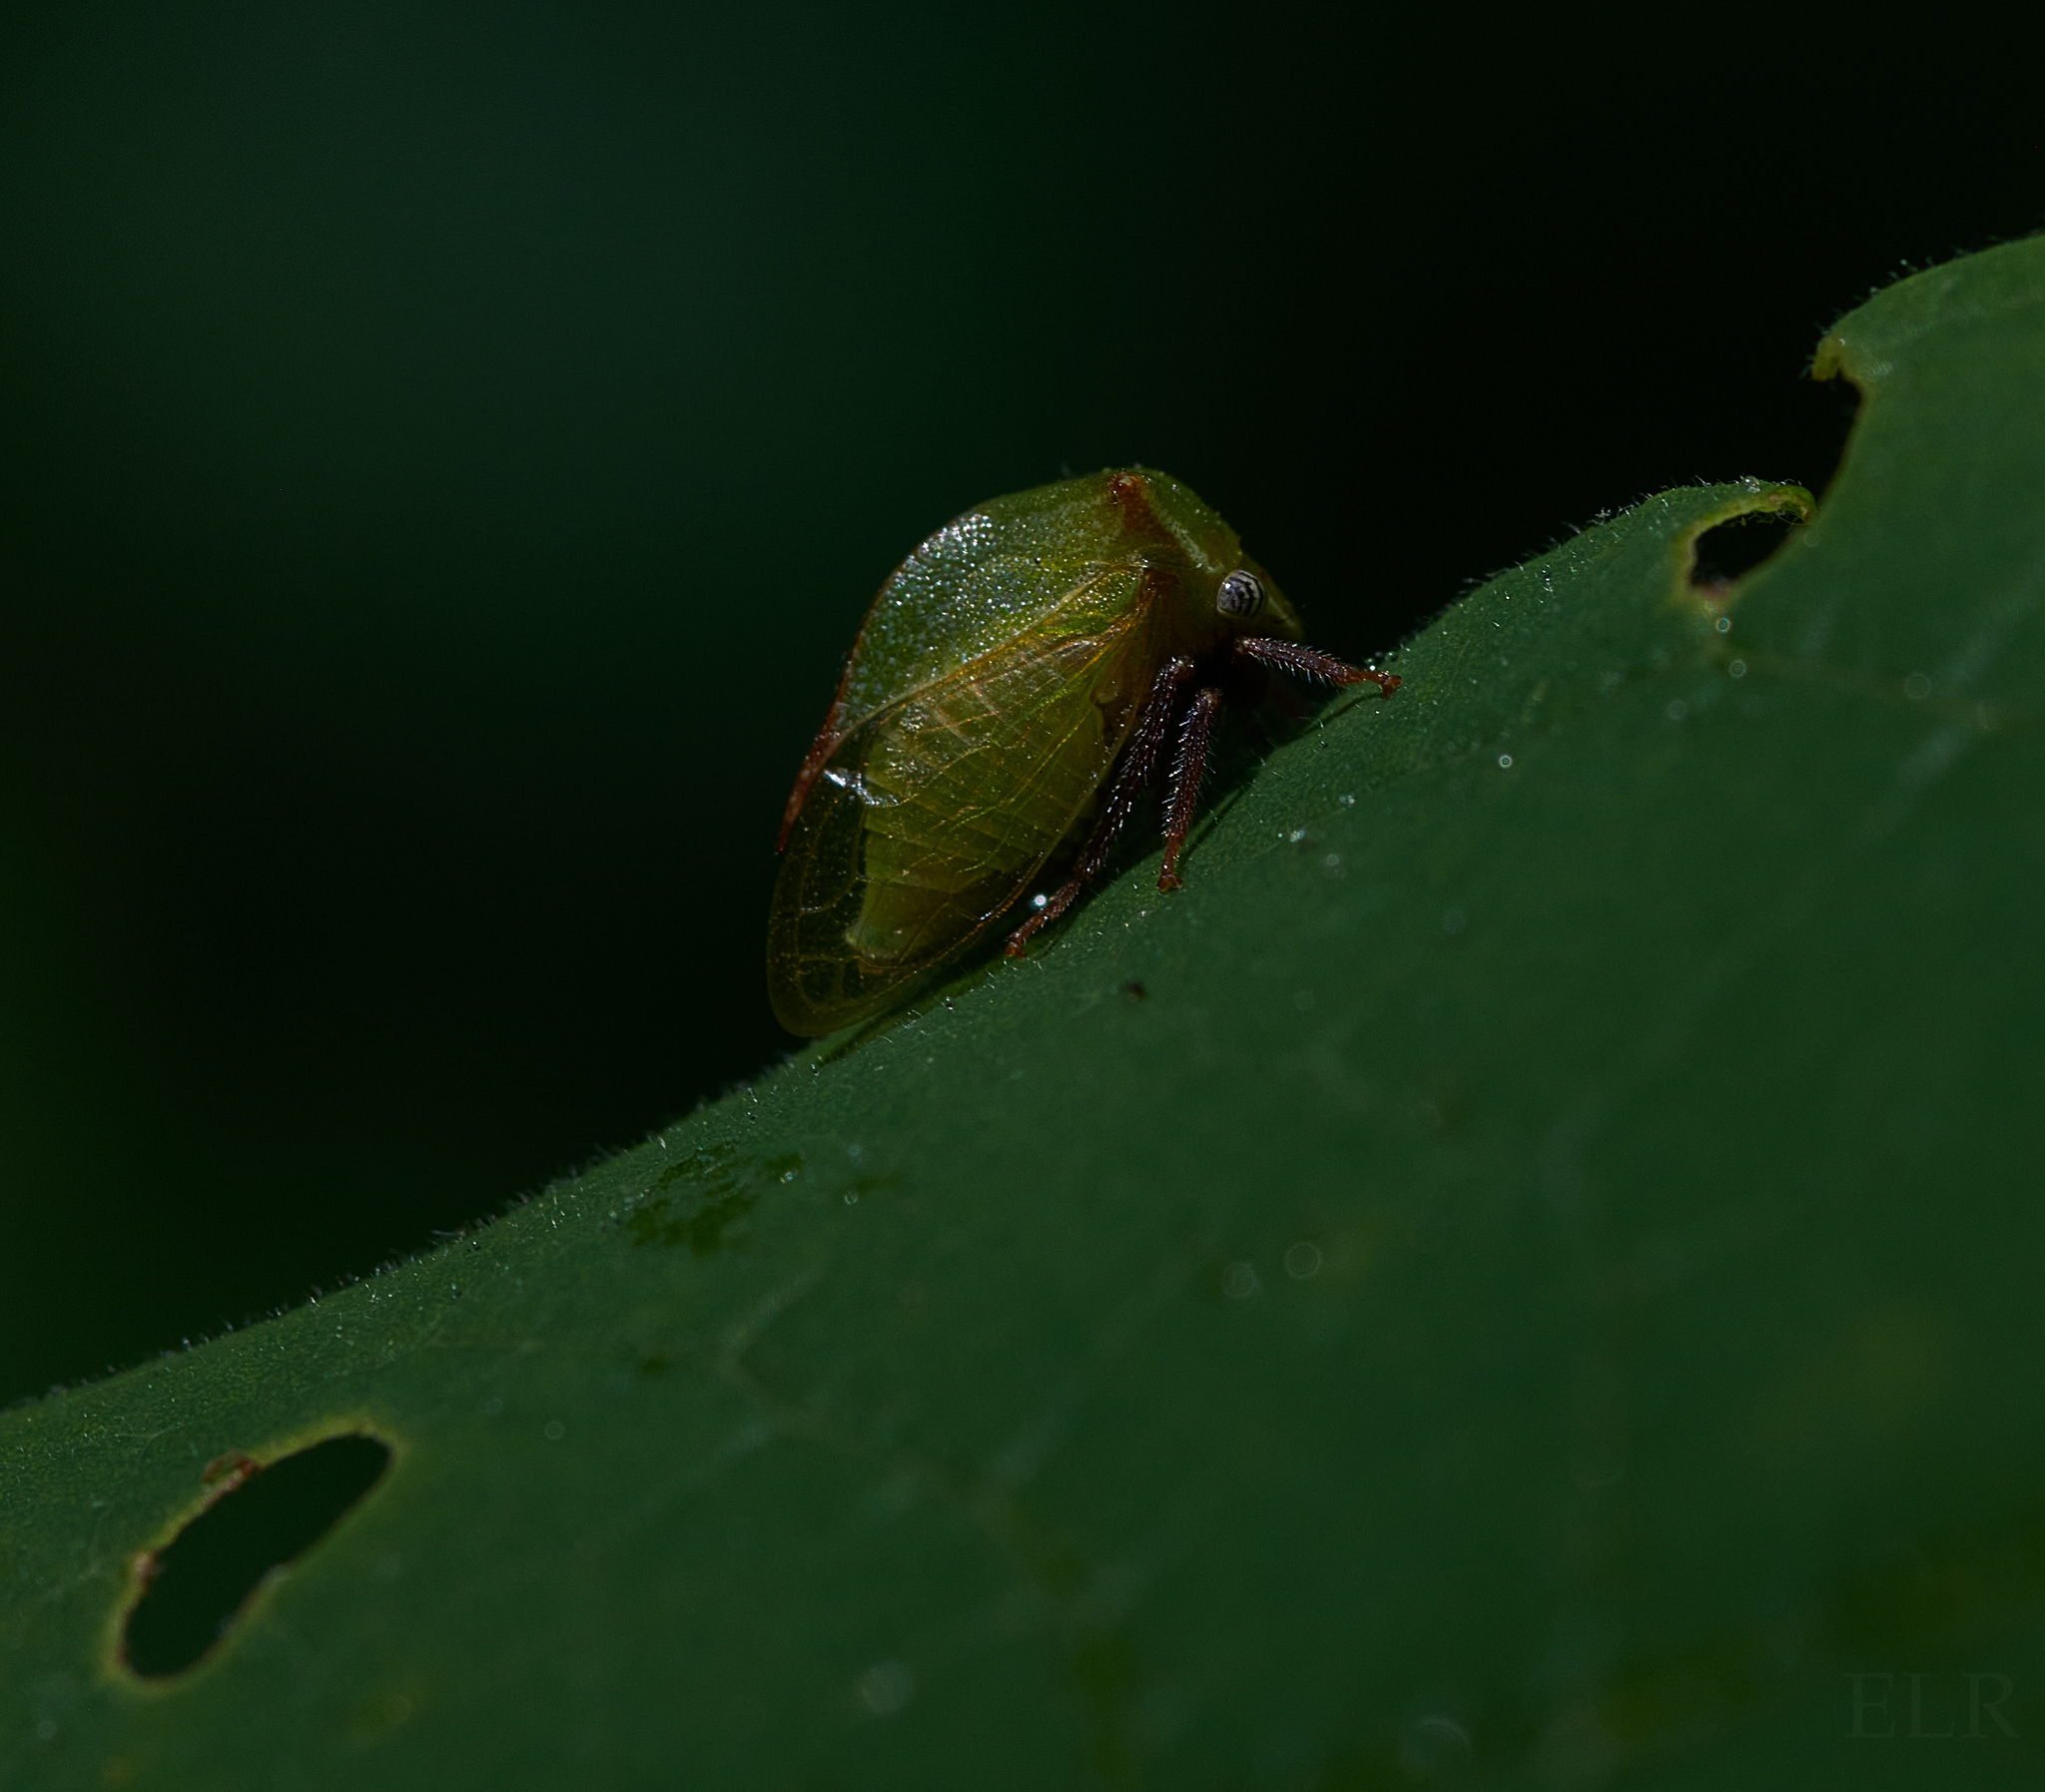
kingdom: Animalia
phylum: Arthropoda
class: Insecta
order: Hemiptera
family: Membracidae
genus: Stictocephala
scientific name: Stictocephala brevitylus
